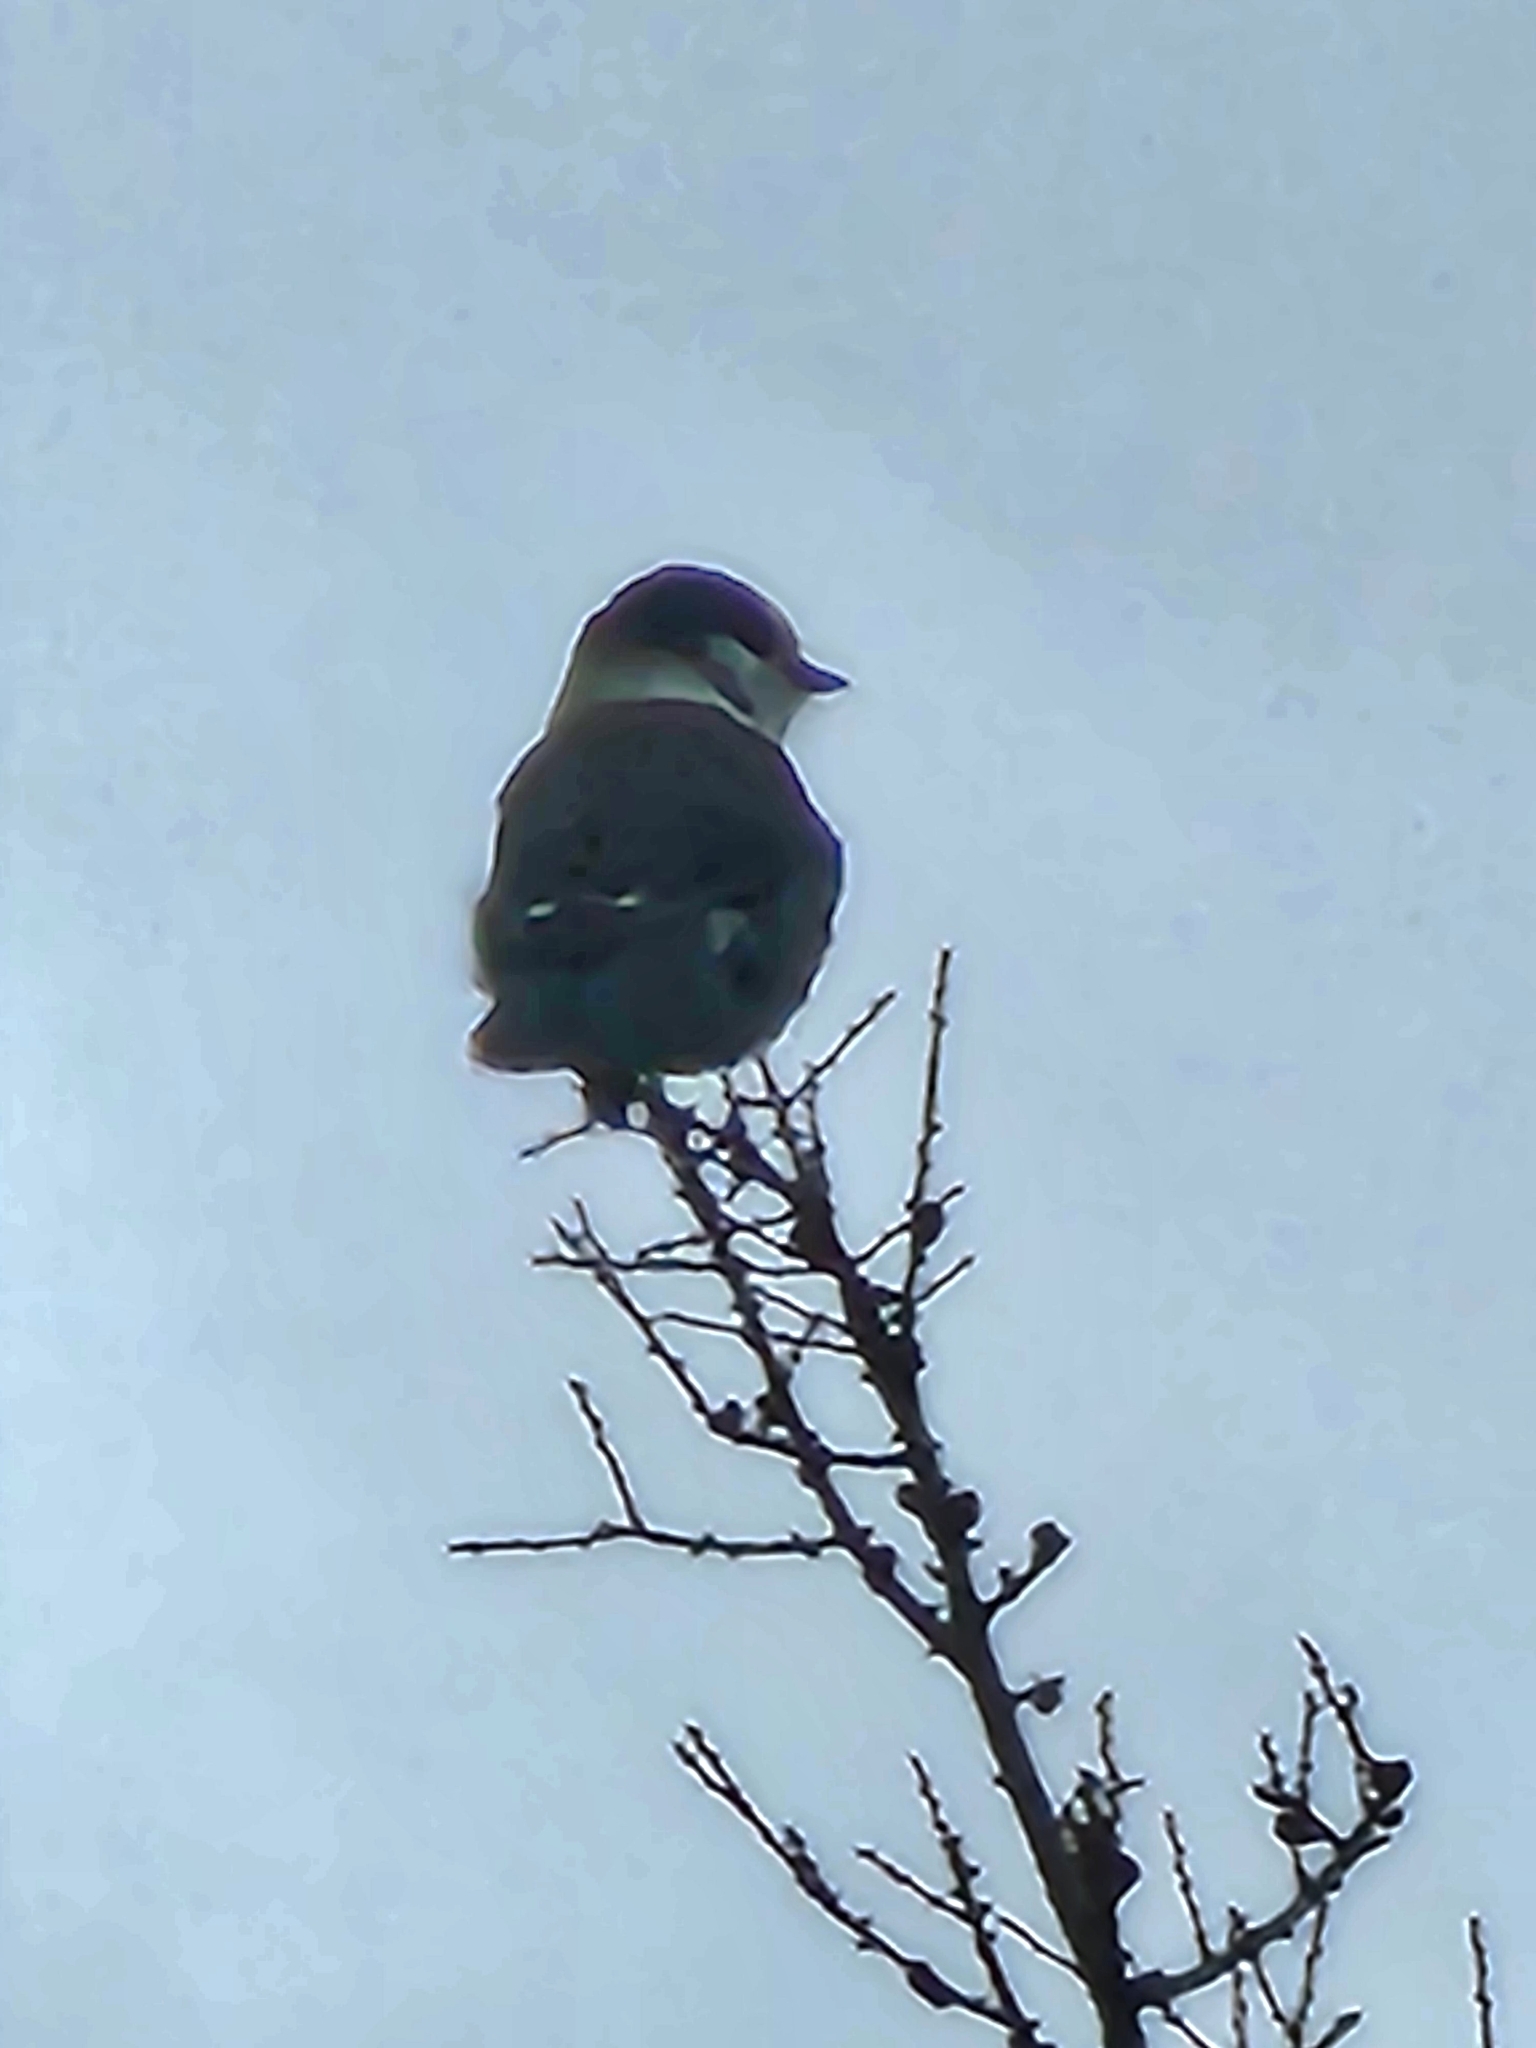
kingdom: Animalia
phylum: Chordata
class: Aves
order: Passeriformes
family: Corvidae
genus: Perisoreus
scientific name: Perisoreus canadensis
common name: Gray jay
